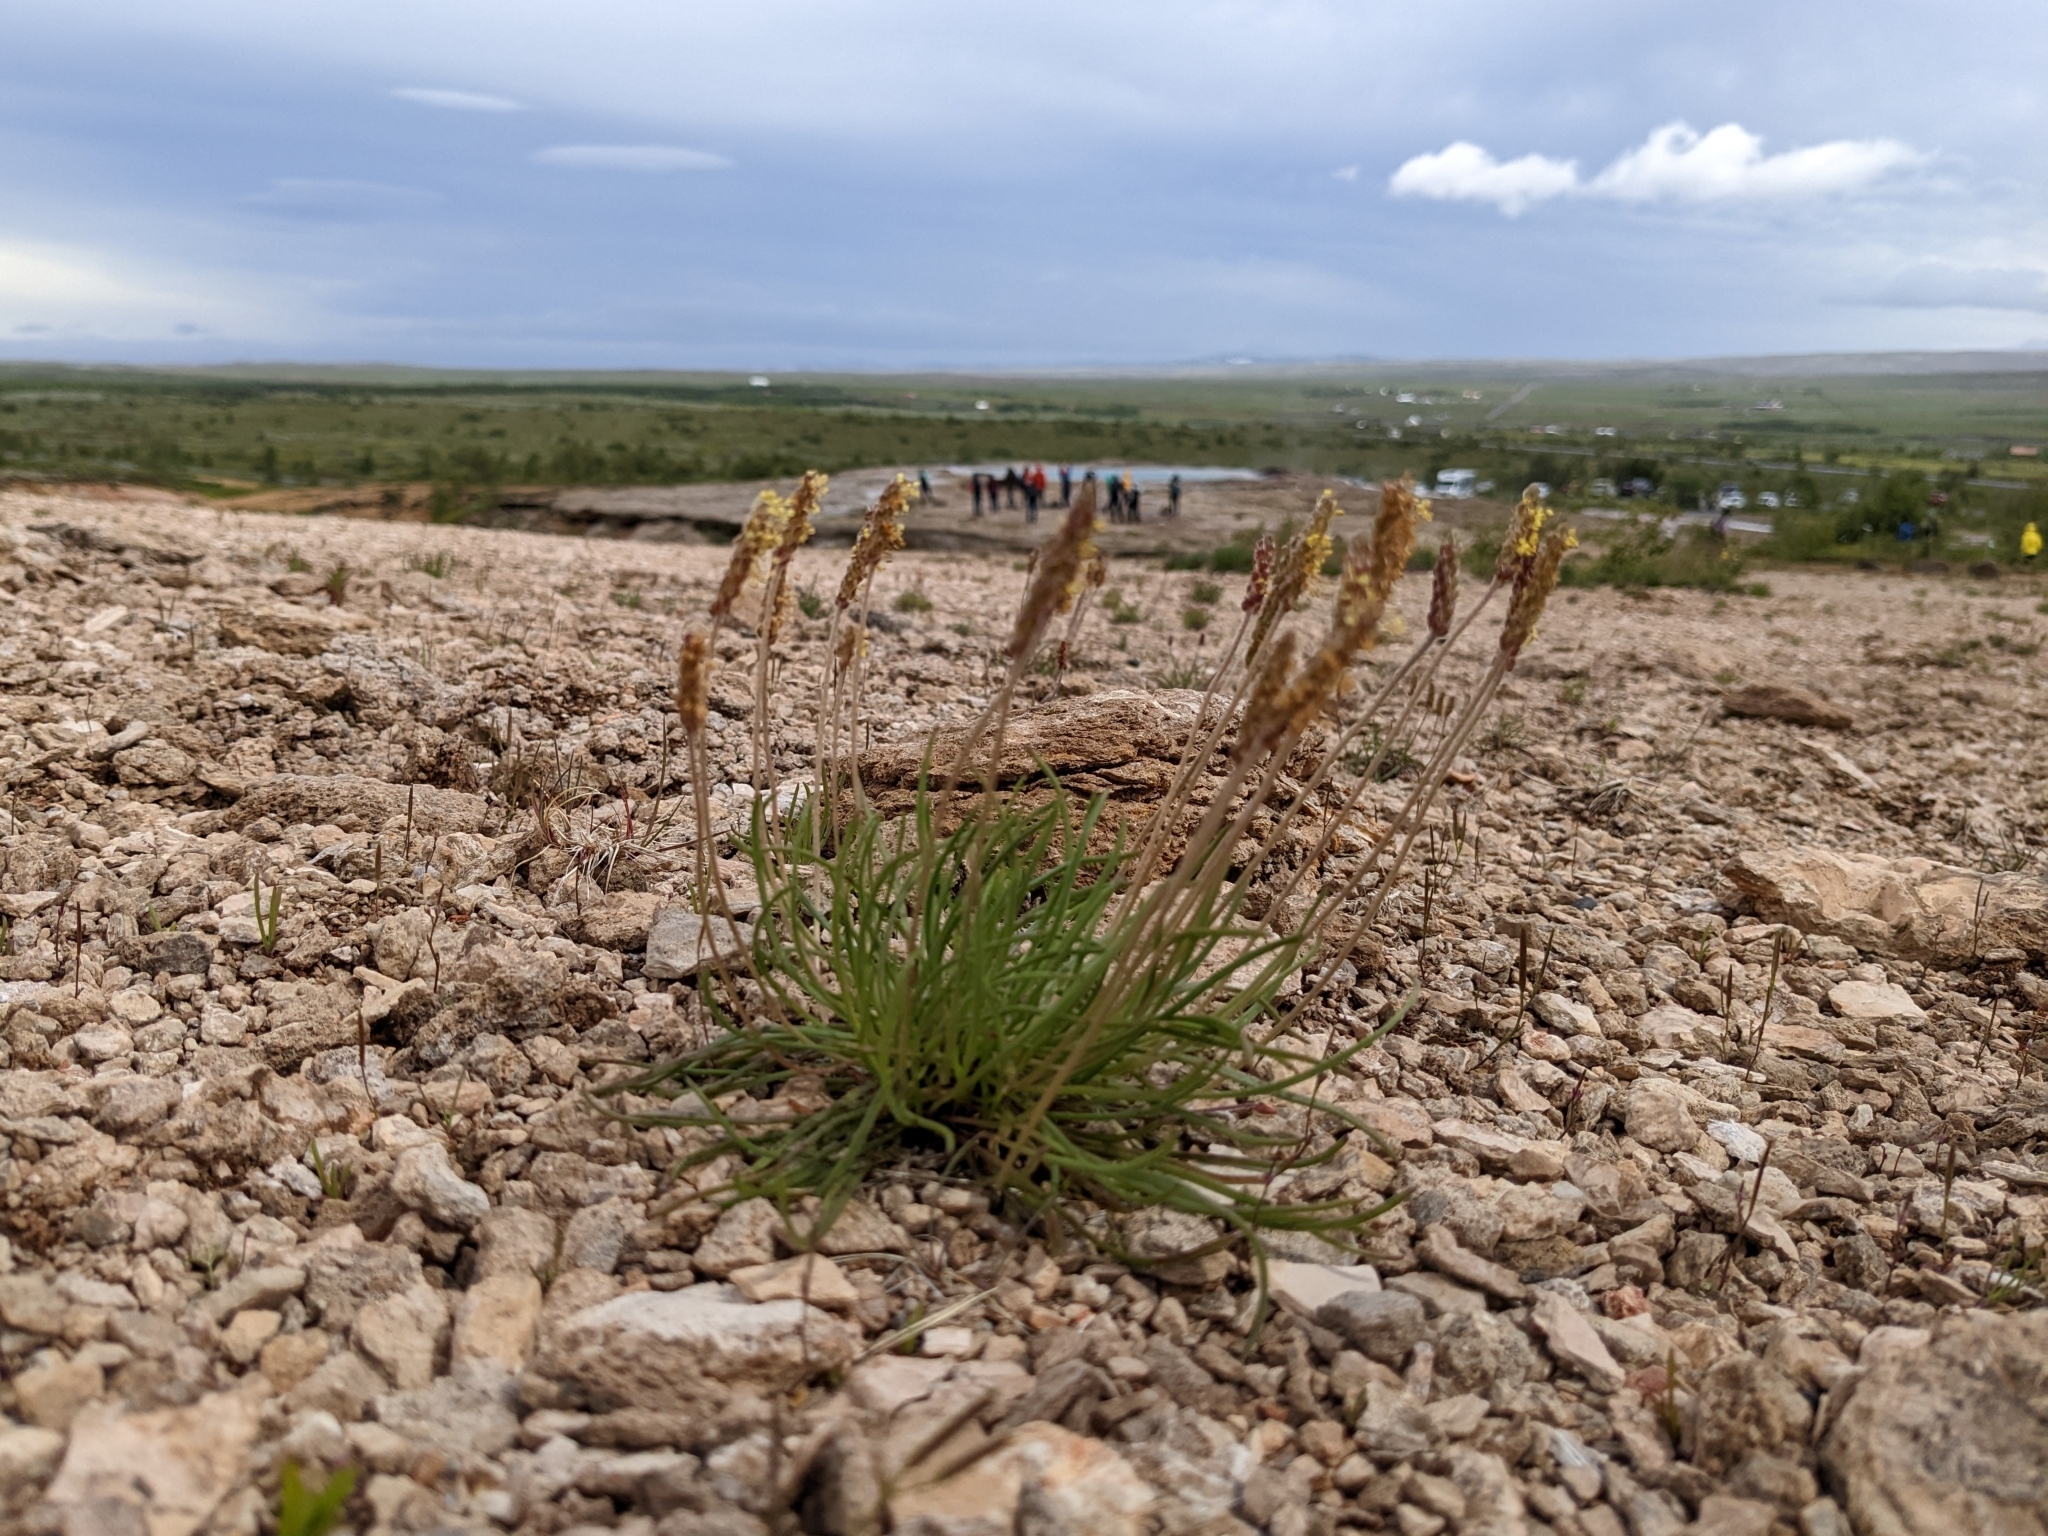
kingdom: Plantae
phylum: Tracheophyta
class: Magnoliopsida
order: Lamiales
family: Plantaginaceae
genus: Plantago
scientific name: Plantago maritima
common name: Sea plantain
